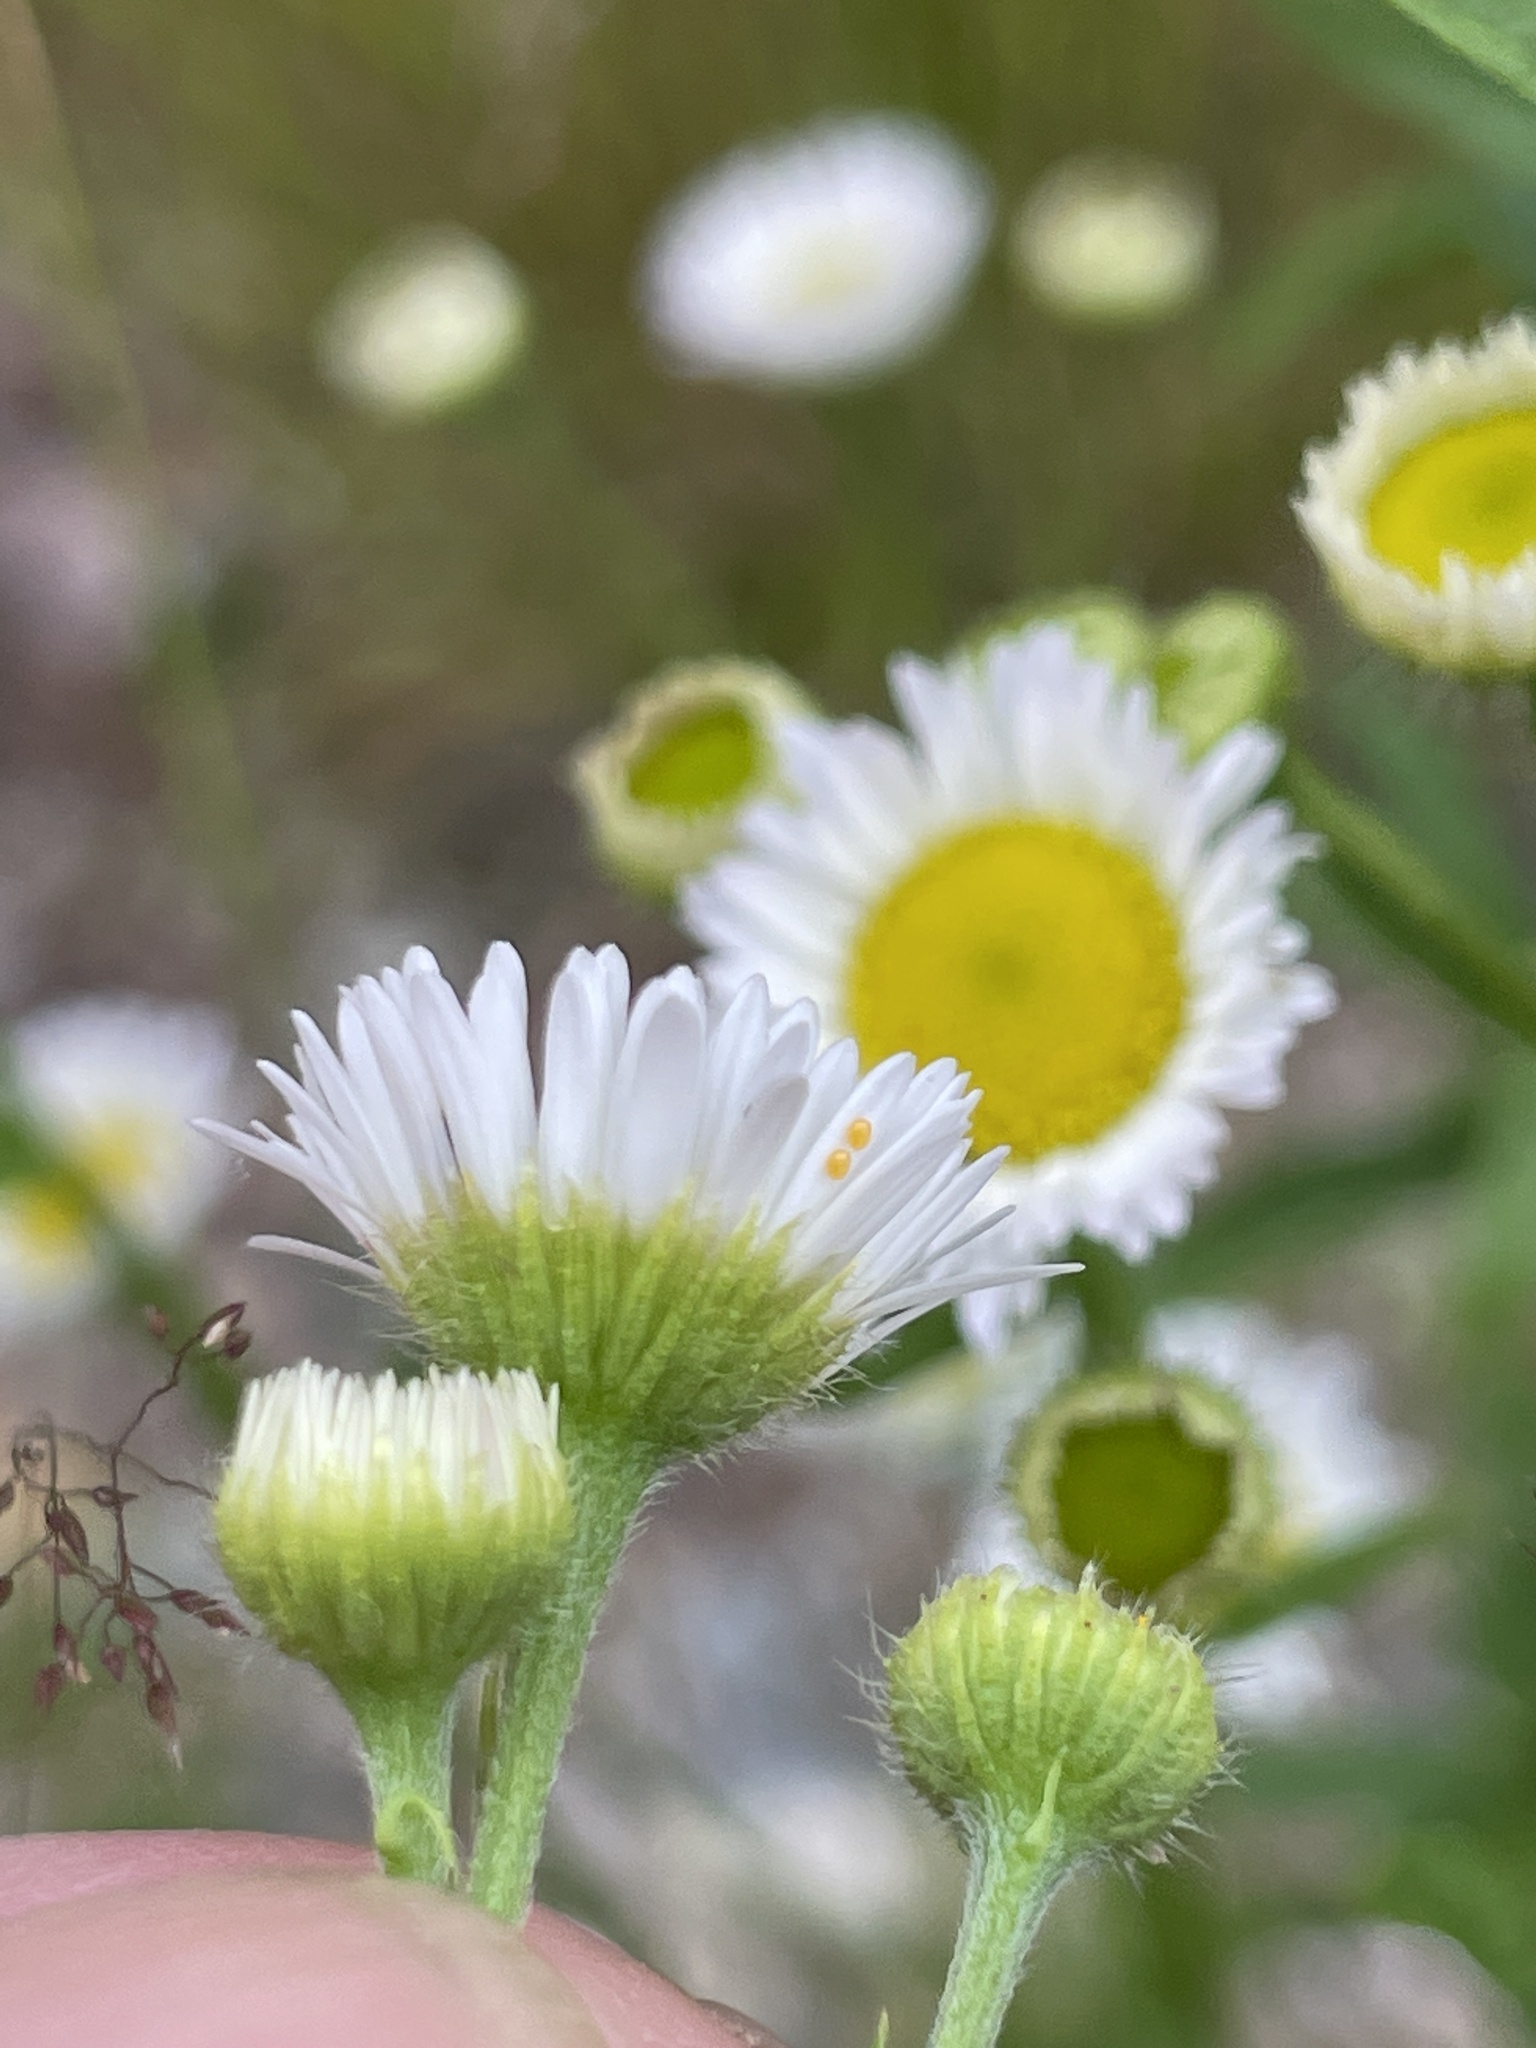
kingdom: Plantae
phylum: Tracheophyta
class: Magnoliopsida
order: Asterales
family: Asteraceae
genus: Erigeron
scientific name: Erigeron strigosus
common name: Common eastern fleabane
